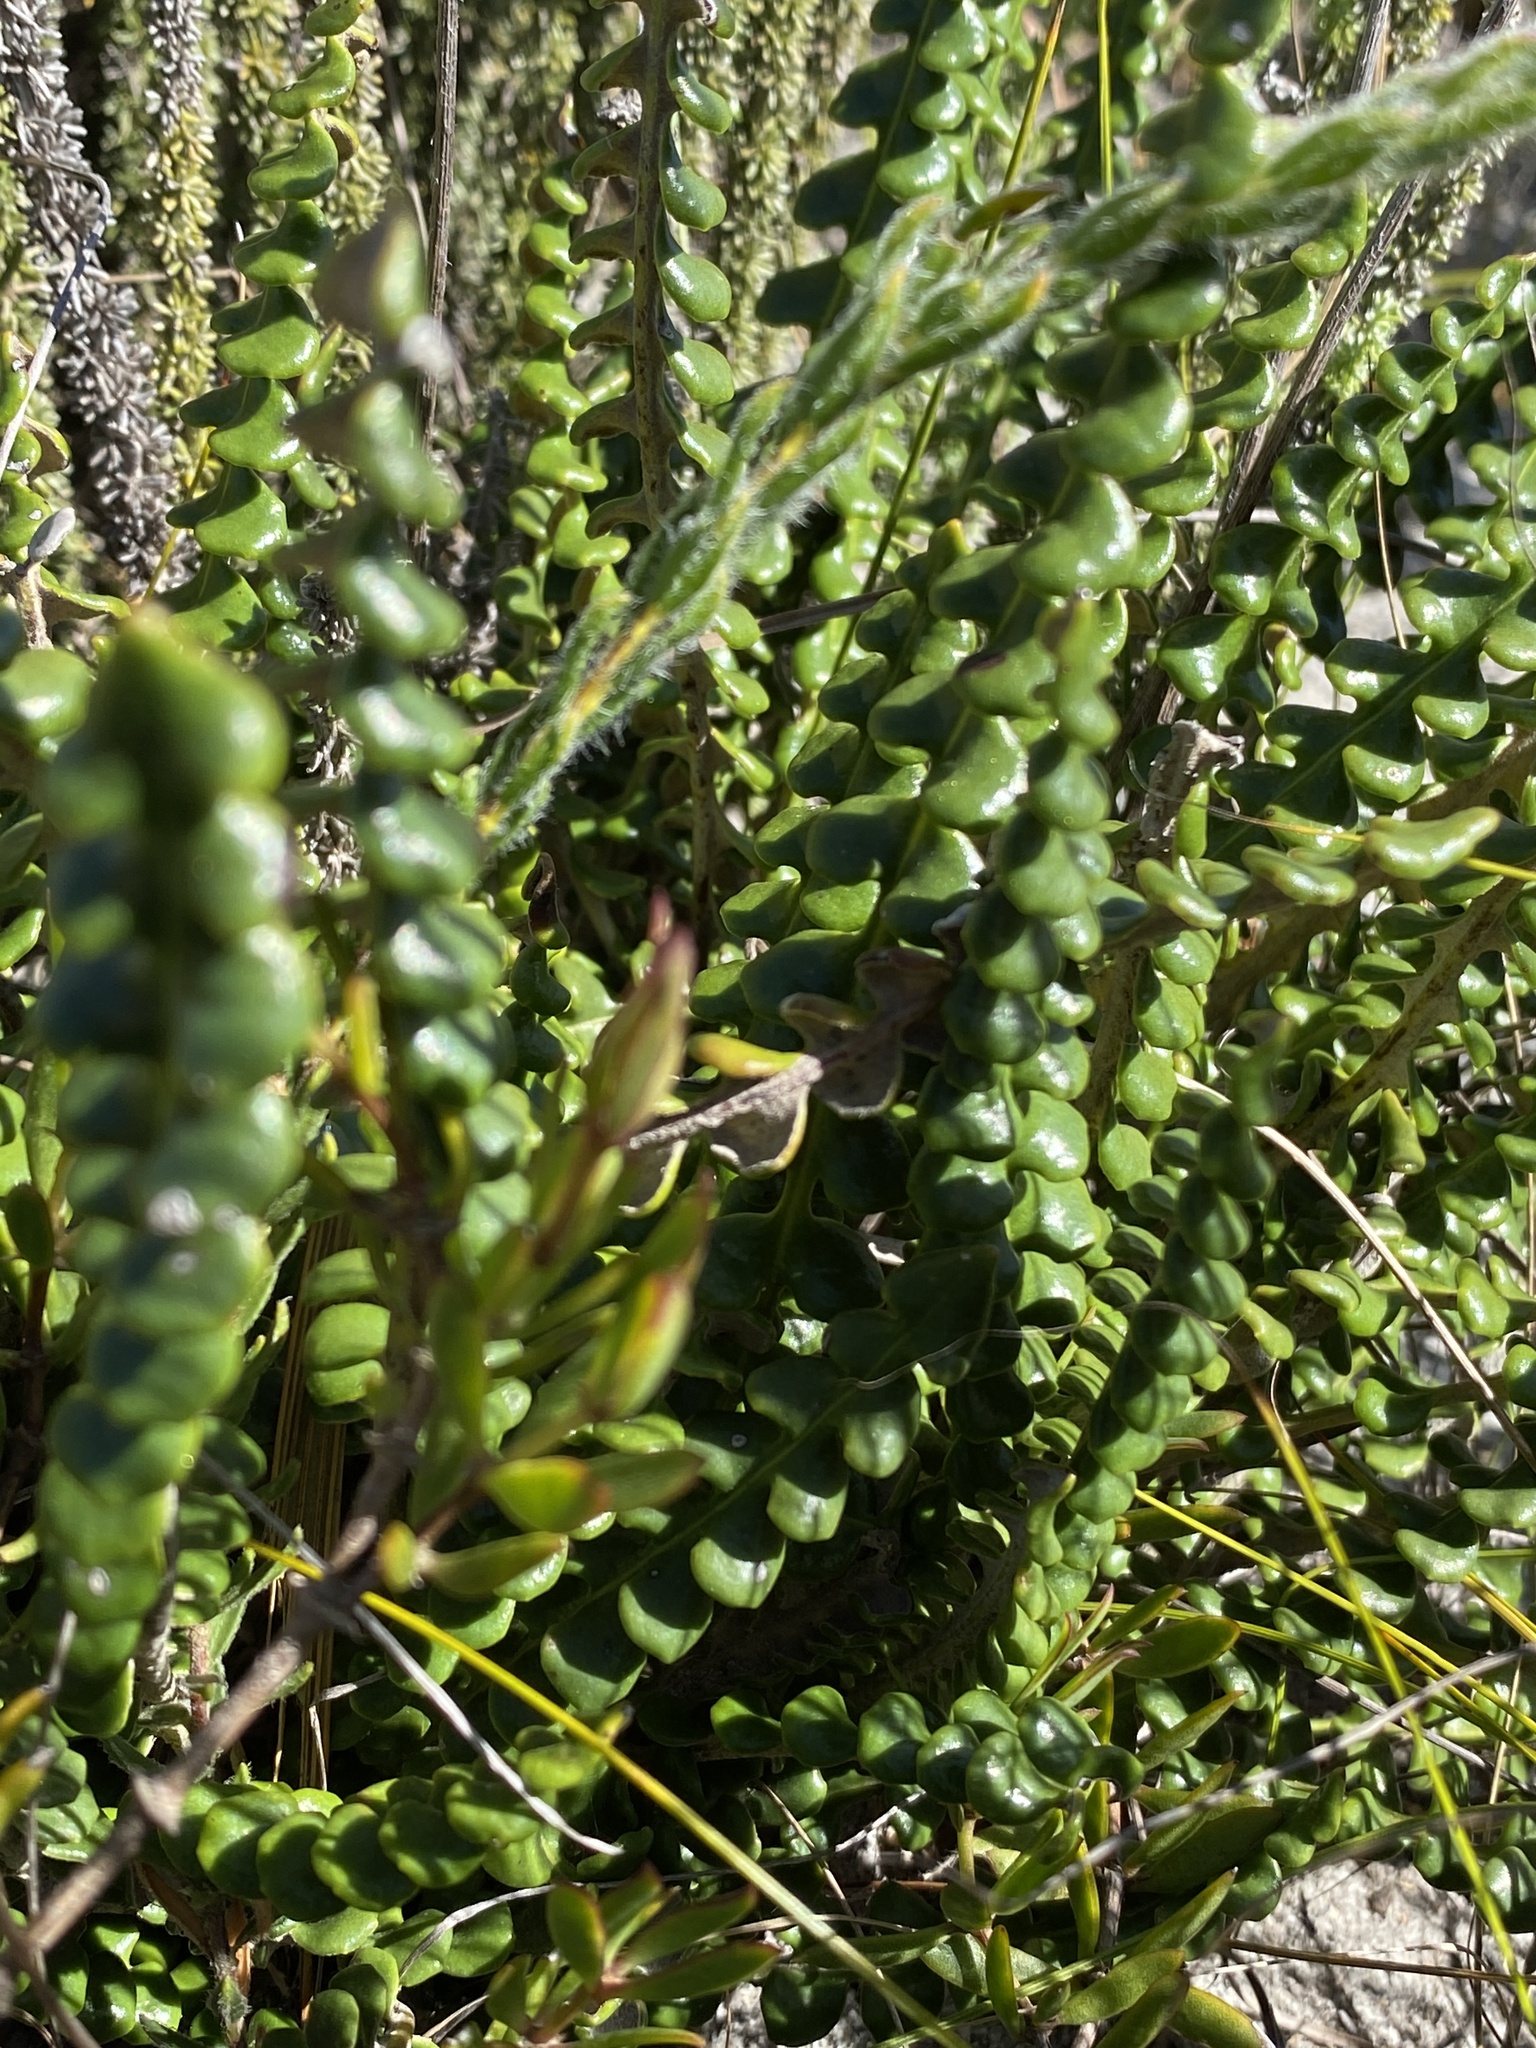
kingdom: Plantae
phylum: Tracheophyta
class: Magnoliopsida
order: Asterales
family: Asteraceae
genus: Gerbera
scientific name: Gerbera linnaei
